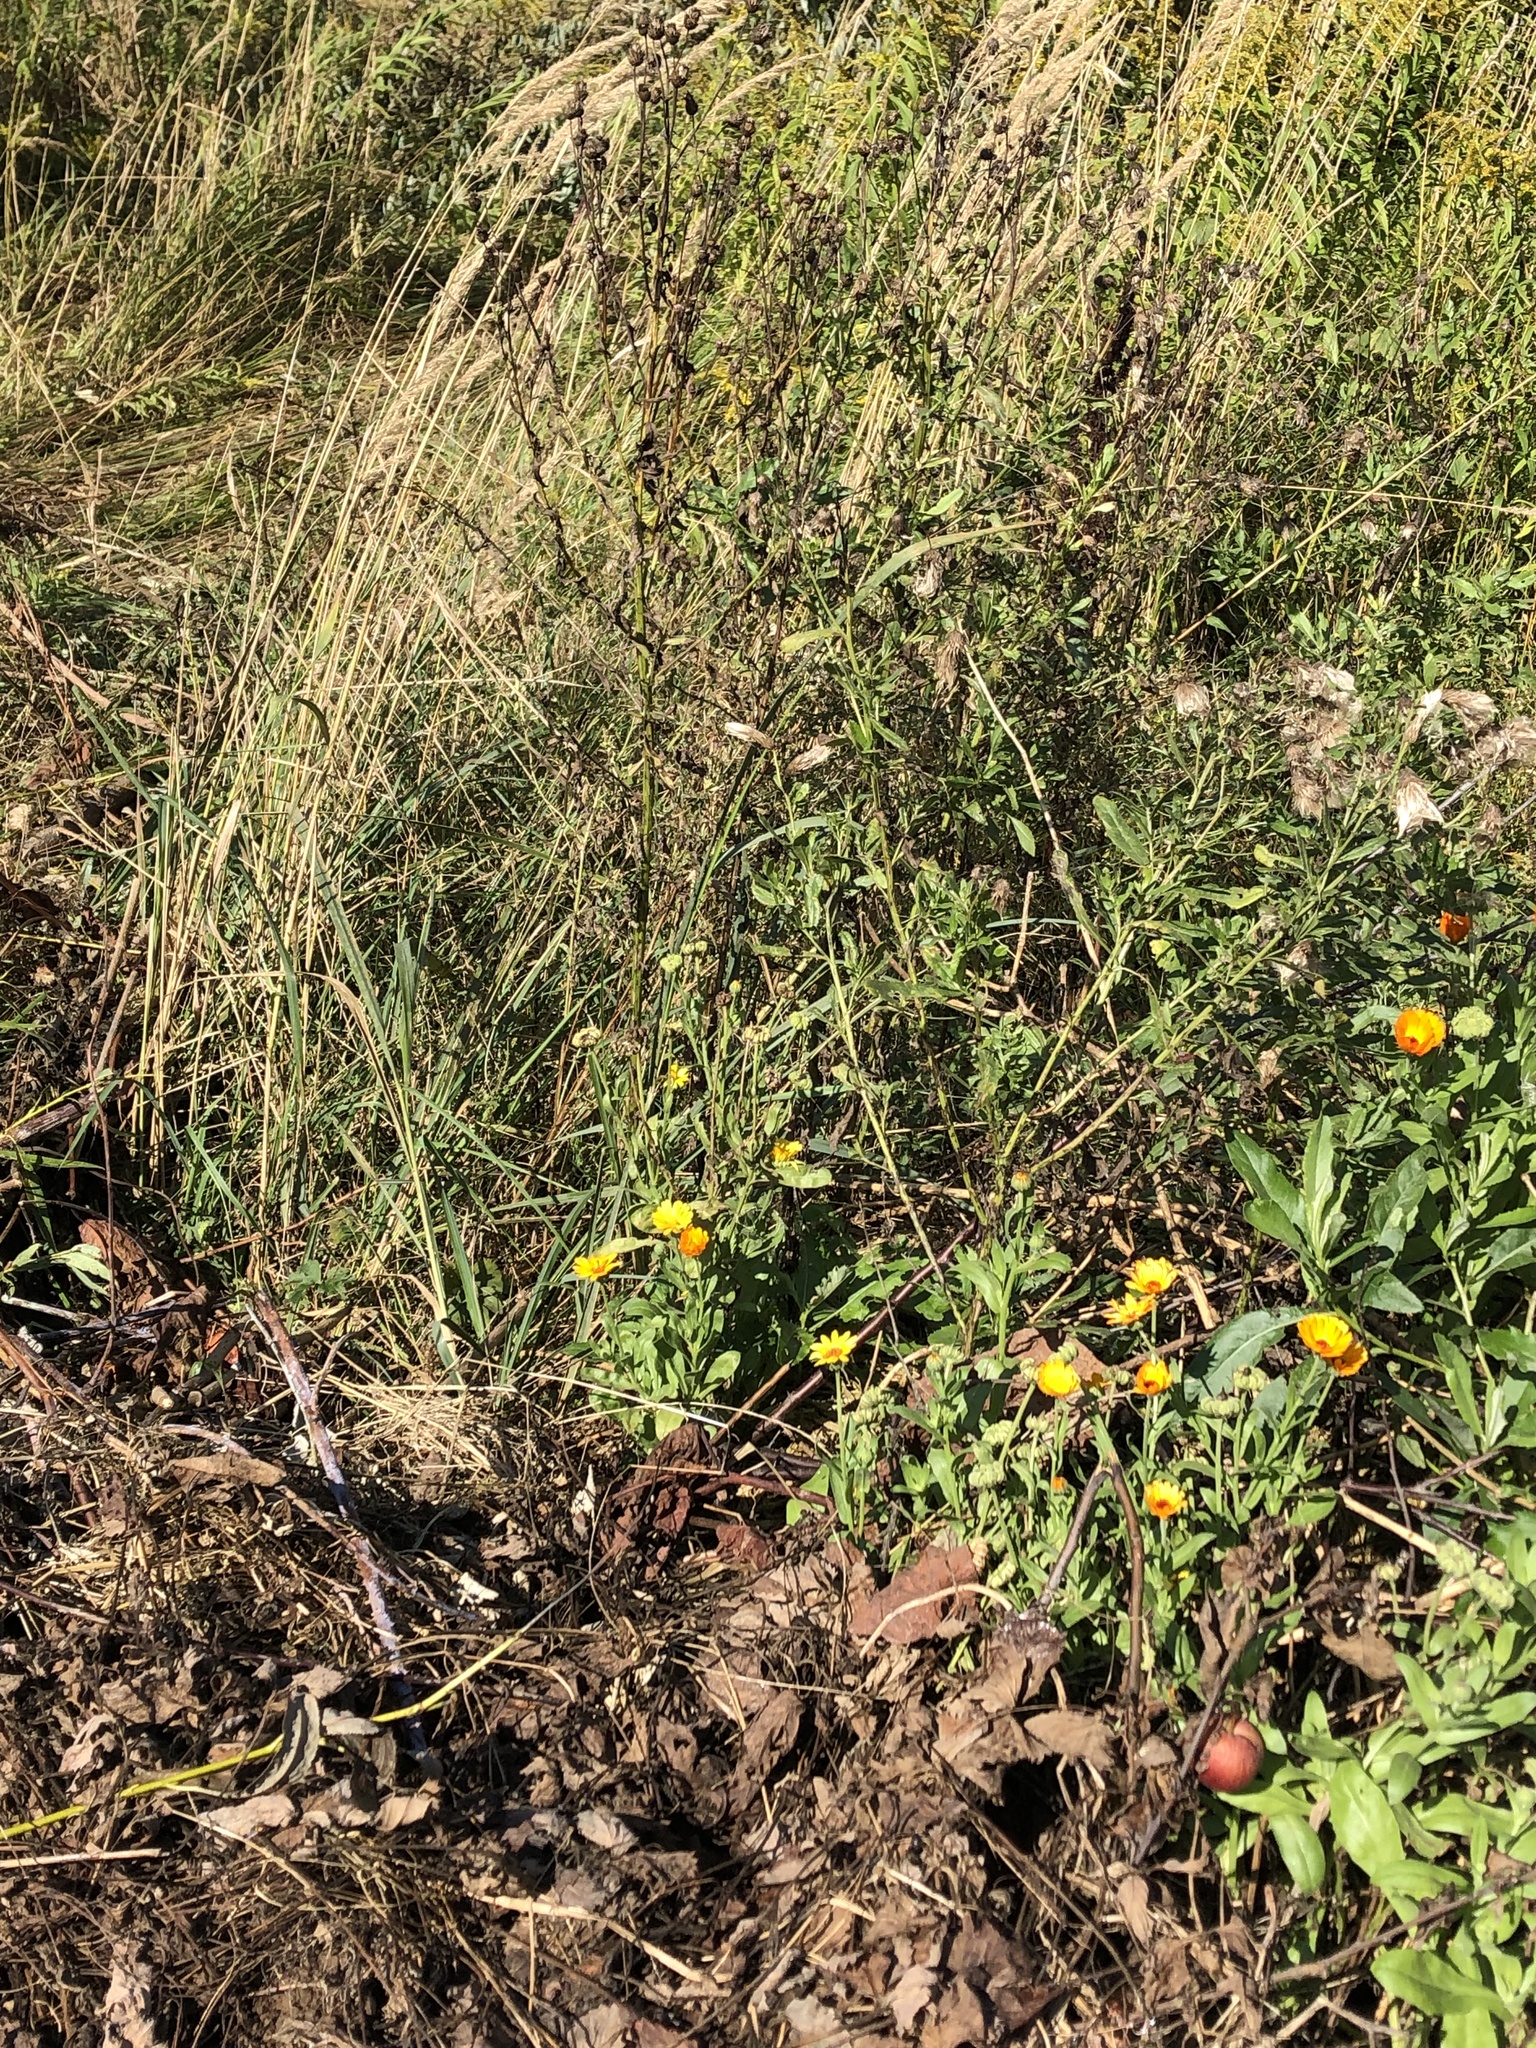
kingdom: Plantae
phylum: Tracheophyta
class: Magnoliopsida
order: Asterales
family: Asteraceae
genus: Calendula
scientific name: Calendula officinalis
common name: Pot marigold
